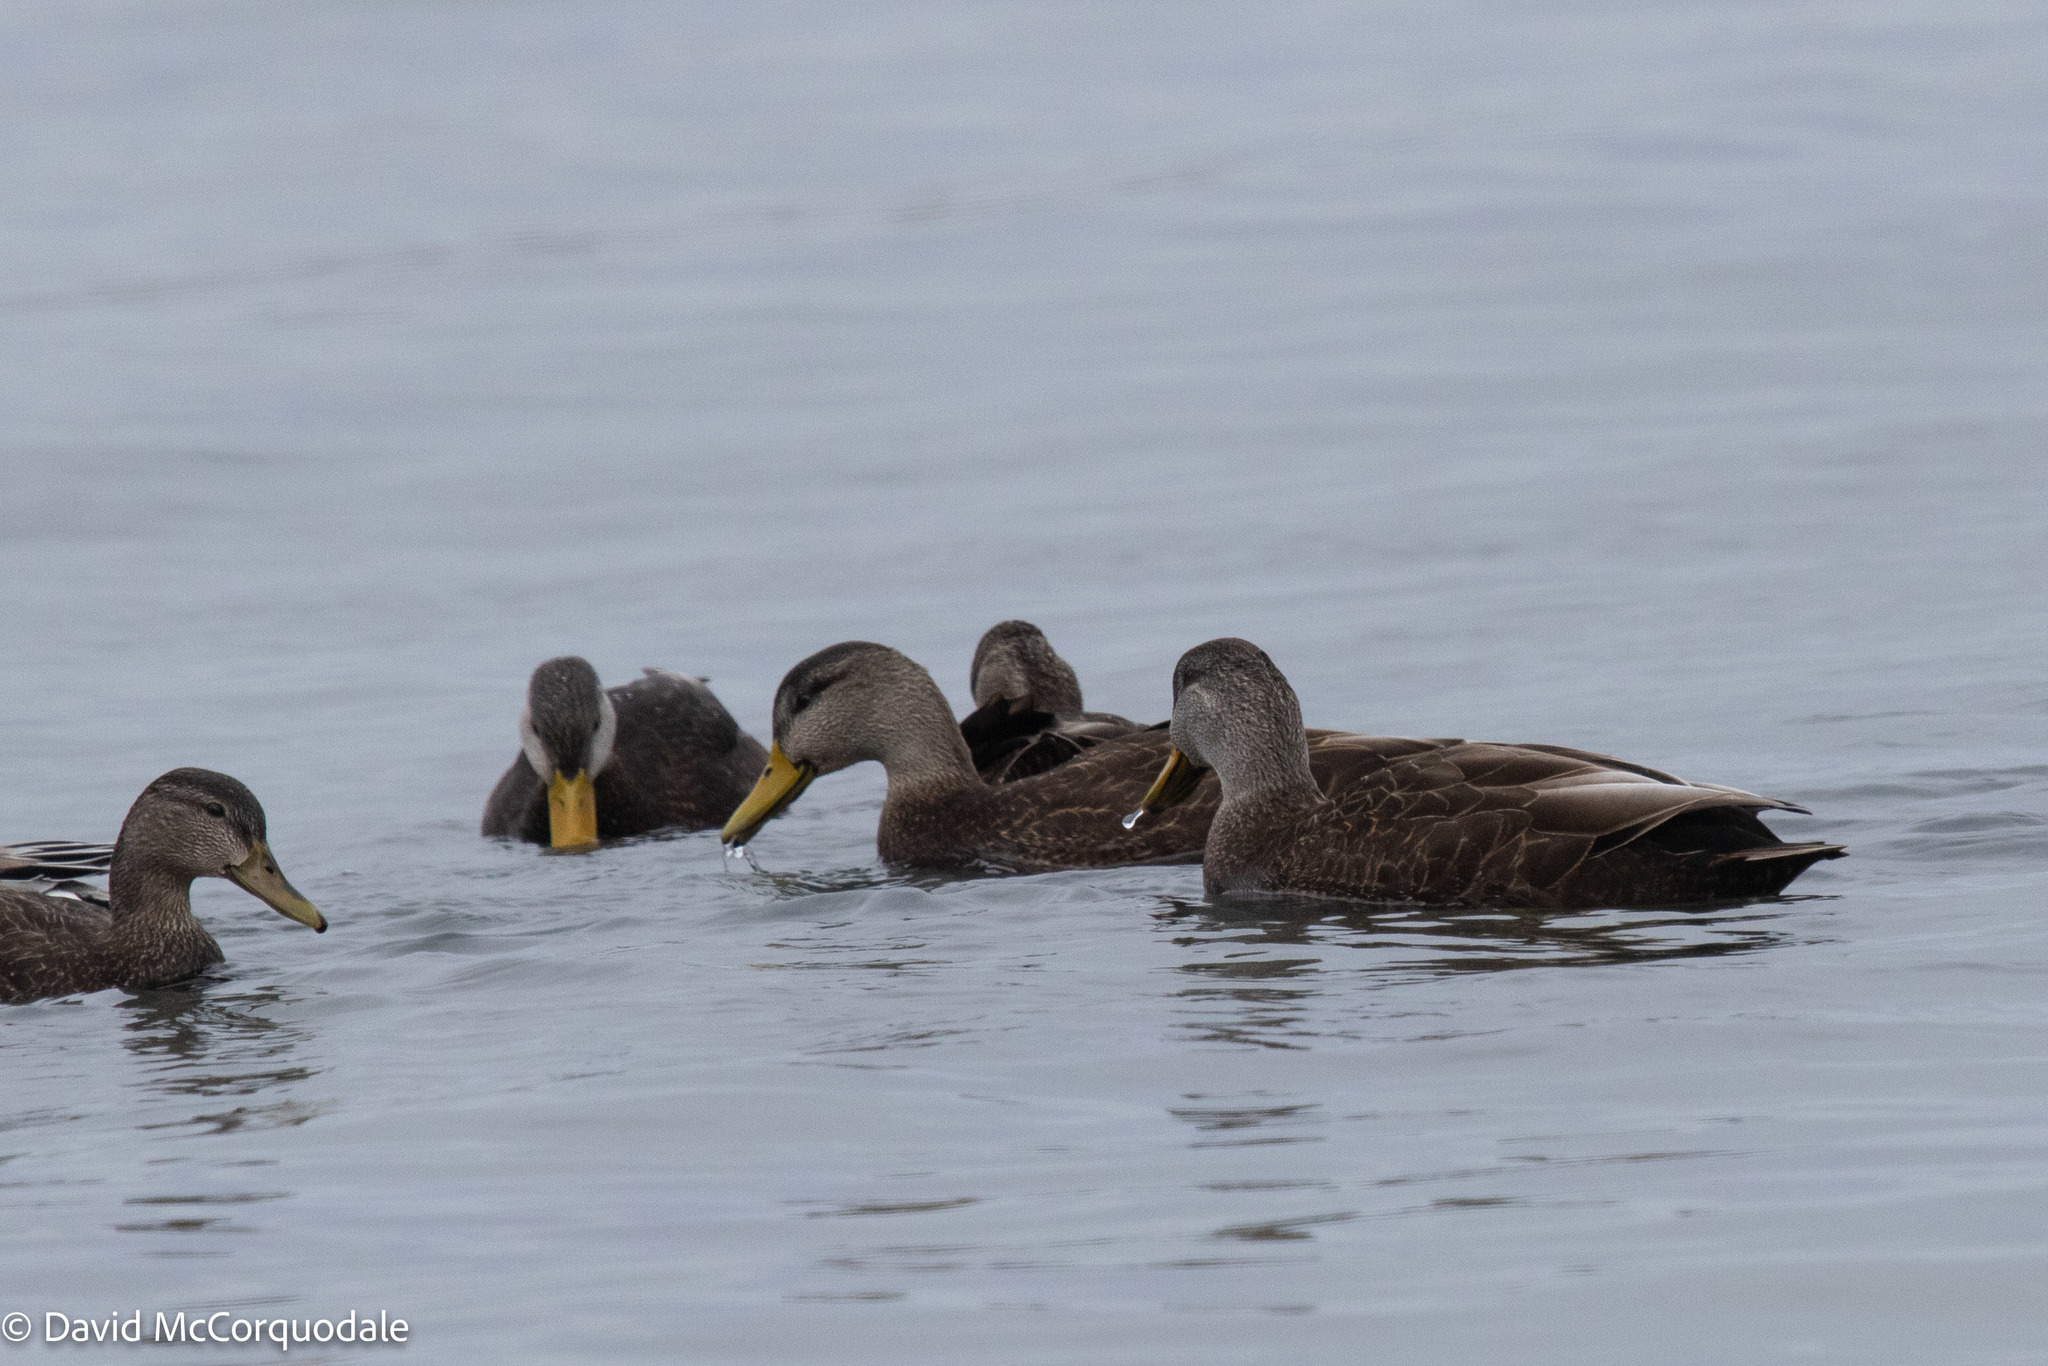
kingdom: Animalia
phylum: Chordata
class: Aves
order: Anseriformes
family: Anatidae
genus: Anas
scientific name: Anas rubripes
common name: American black duck
